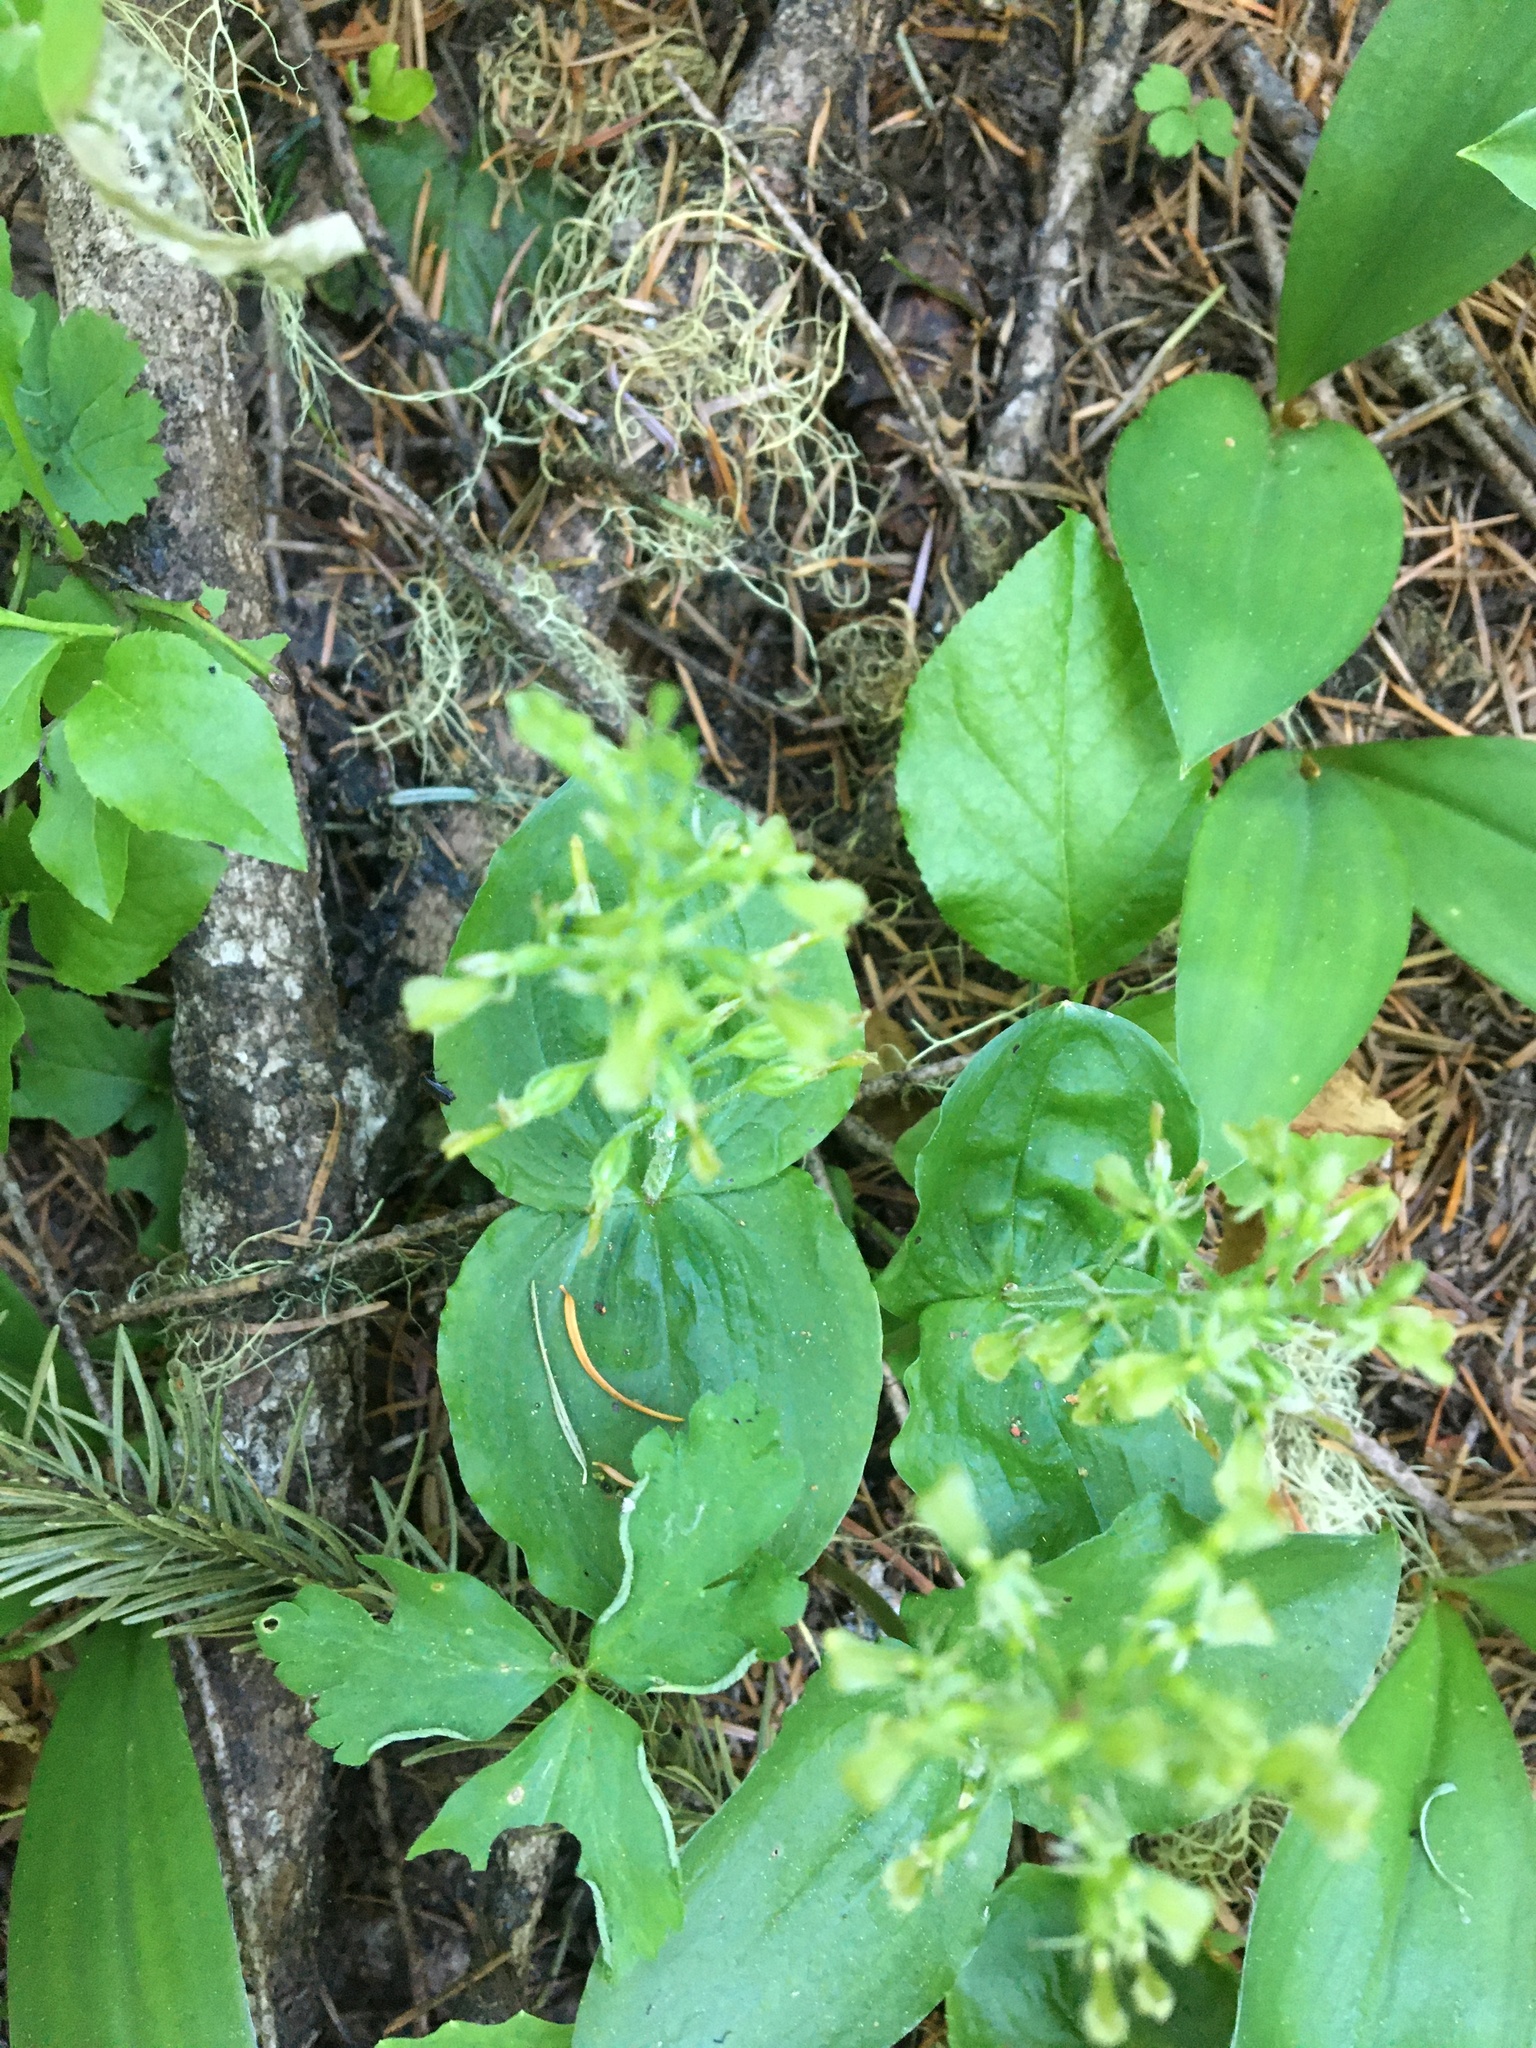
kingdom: Plantae
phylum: Tracheophyta
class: Liliopsida
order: Asparagales
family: Orchidaceae
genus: Neottia
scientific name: Neottia banksiana
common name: Northwestern twayblade
